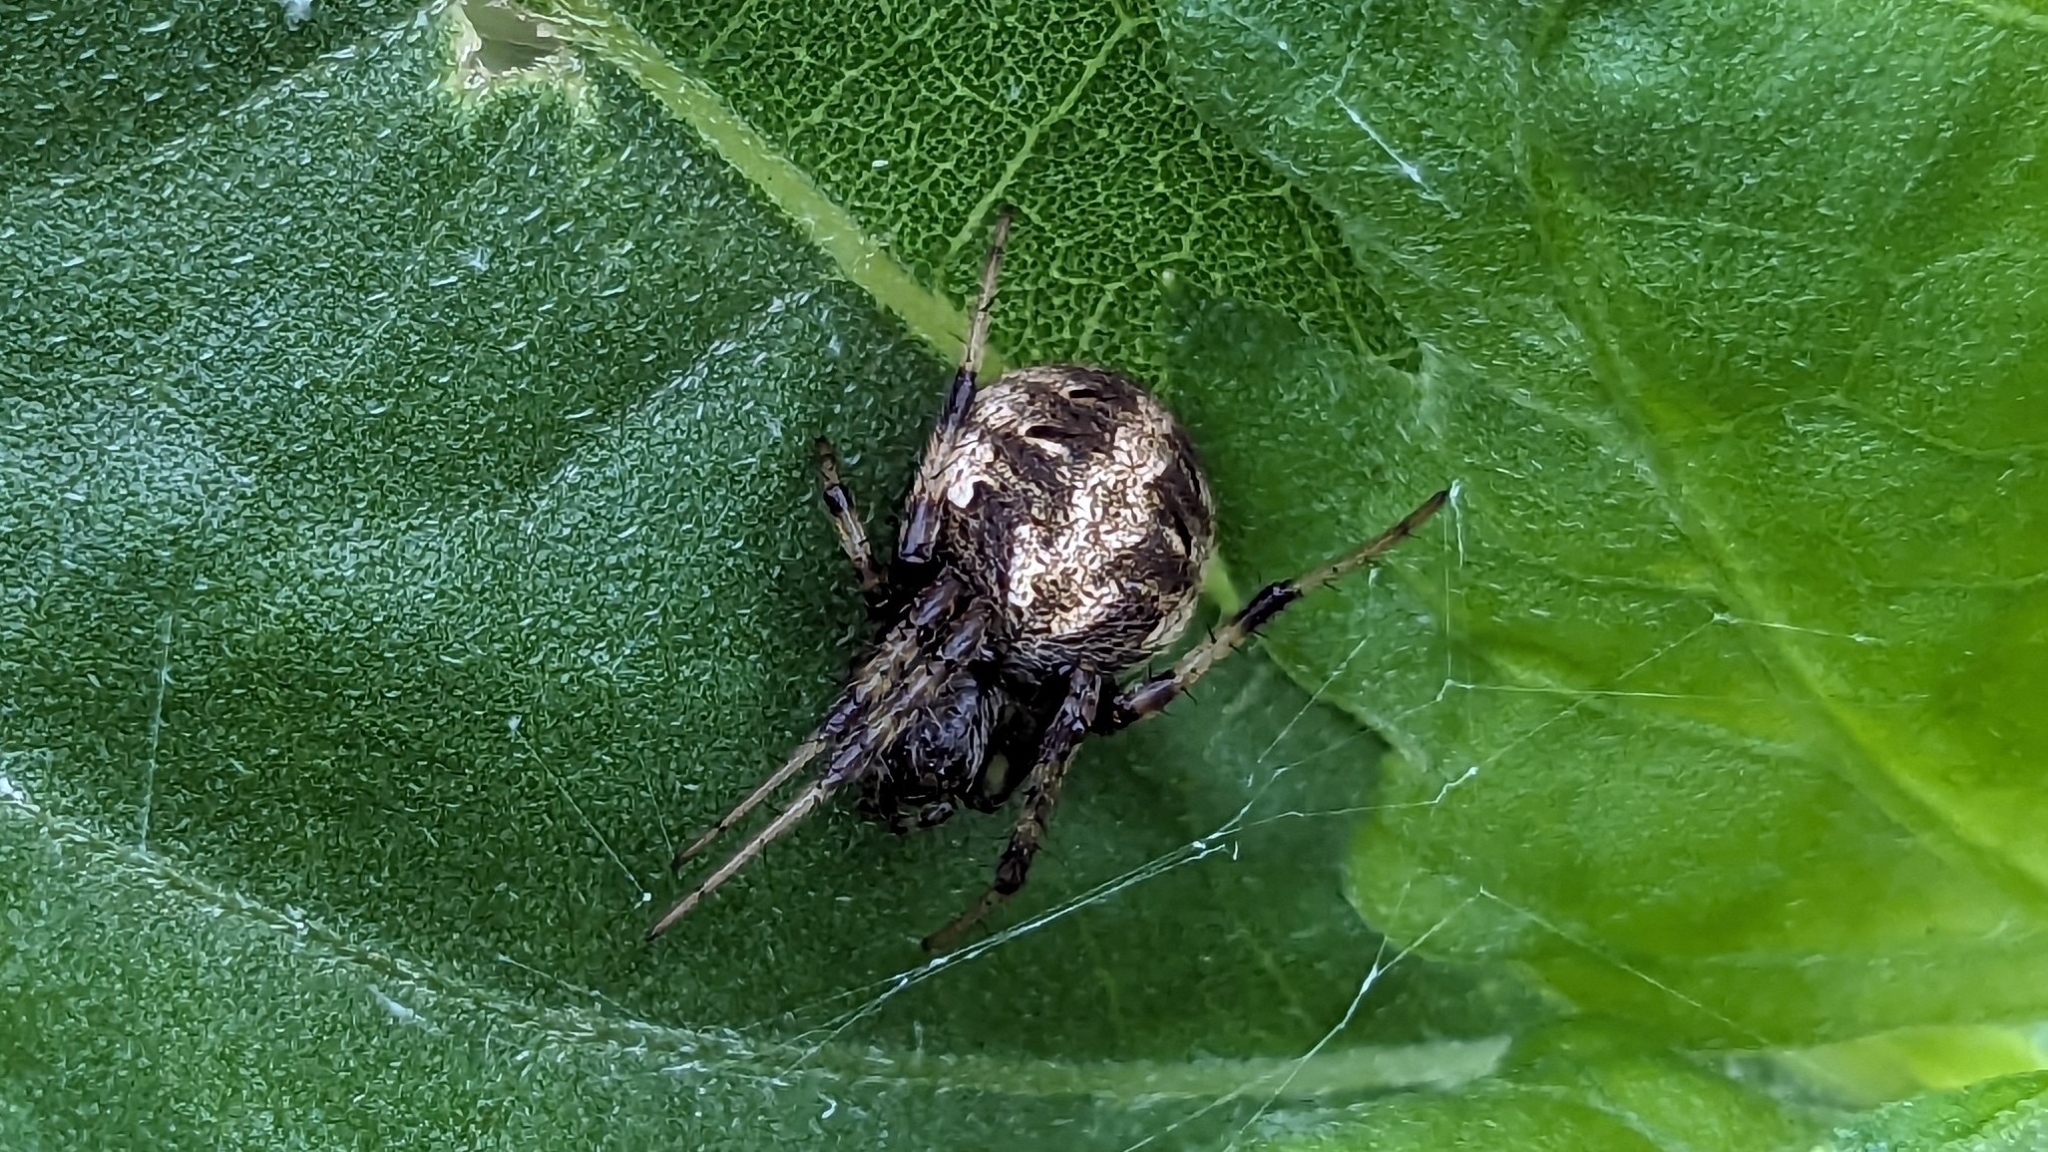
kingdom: Animalia
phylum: Arthropoda
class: Arachnida
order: Araneae
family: Araneidae
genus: Neoscona
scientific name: Neoscona arabesca
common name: Orb weavers
